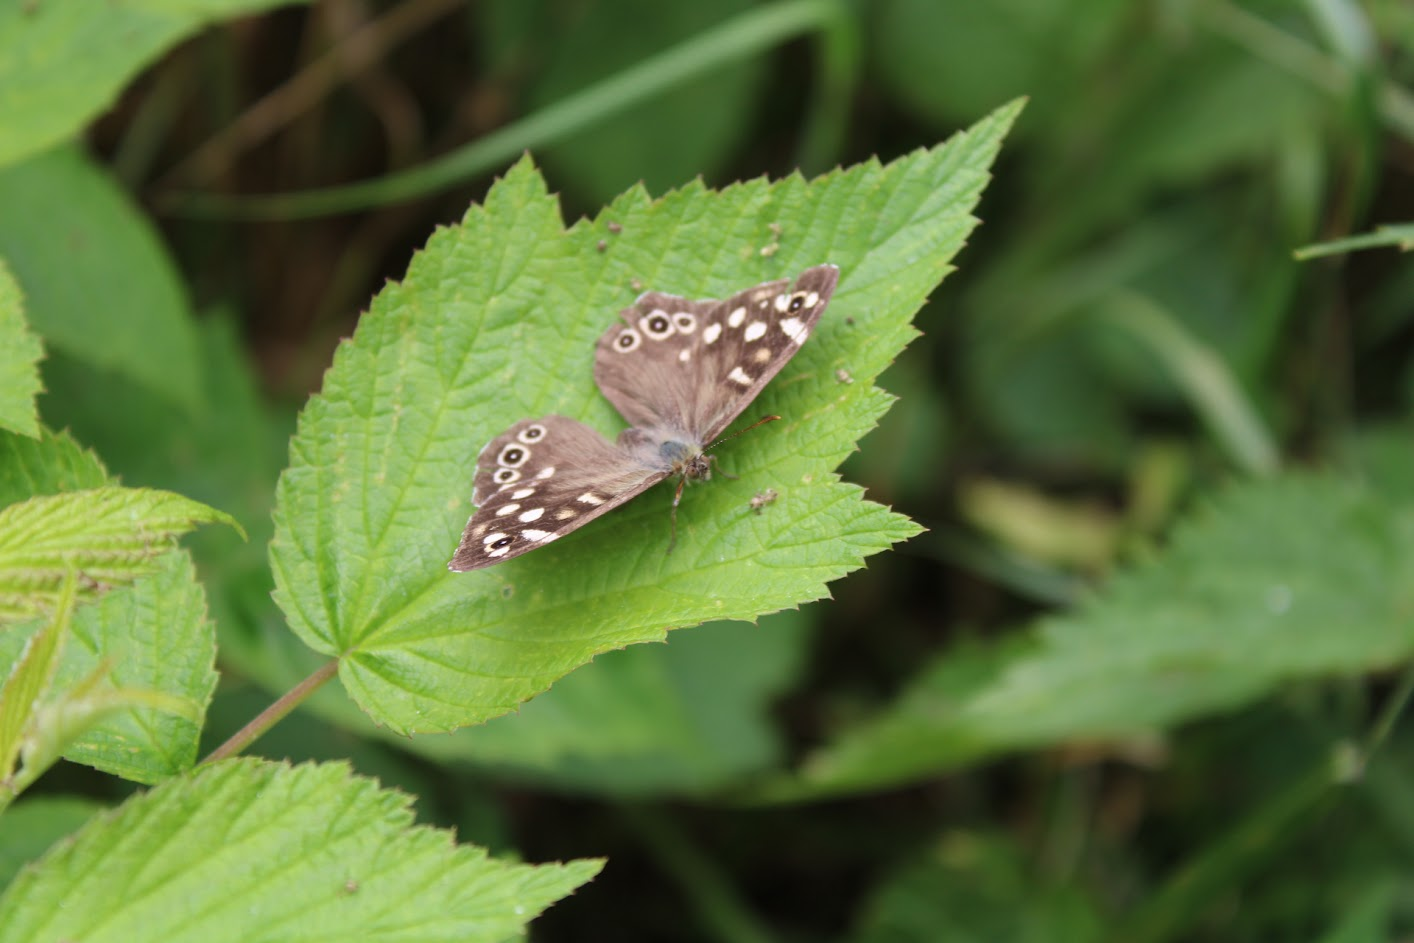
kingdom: Animalia
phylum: Arthropoda
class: Insecta
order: Lepidoptera
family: Nymphalidae
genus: Pararge
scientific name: Pararge aegeria
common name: Speckled wood
